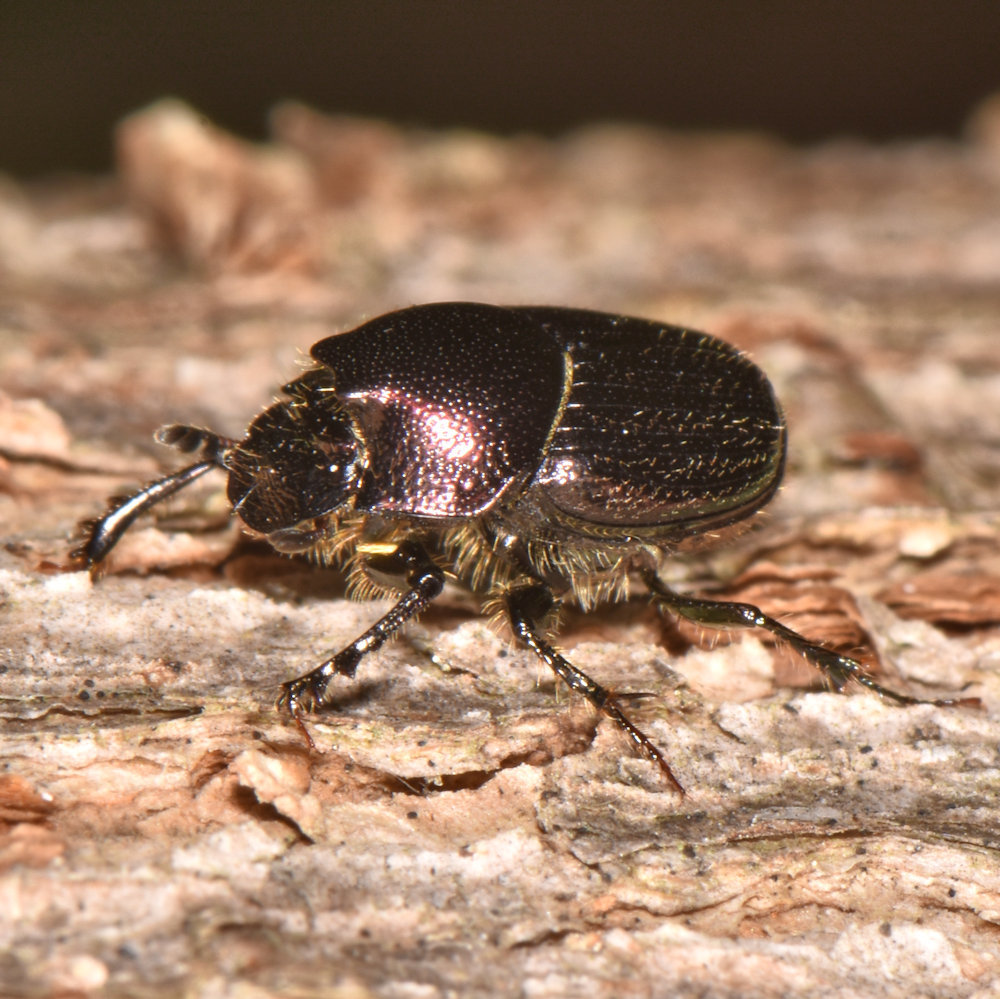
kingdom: Animalia
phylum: Arthropoda
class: Insecta
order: Coleoptera
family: Scarabaeidae
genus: Onthophagus
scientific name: Onthophagus orpheus
